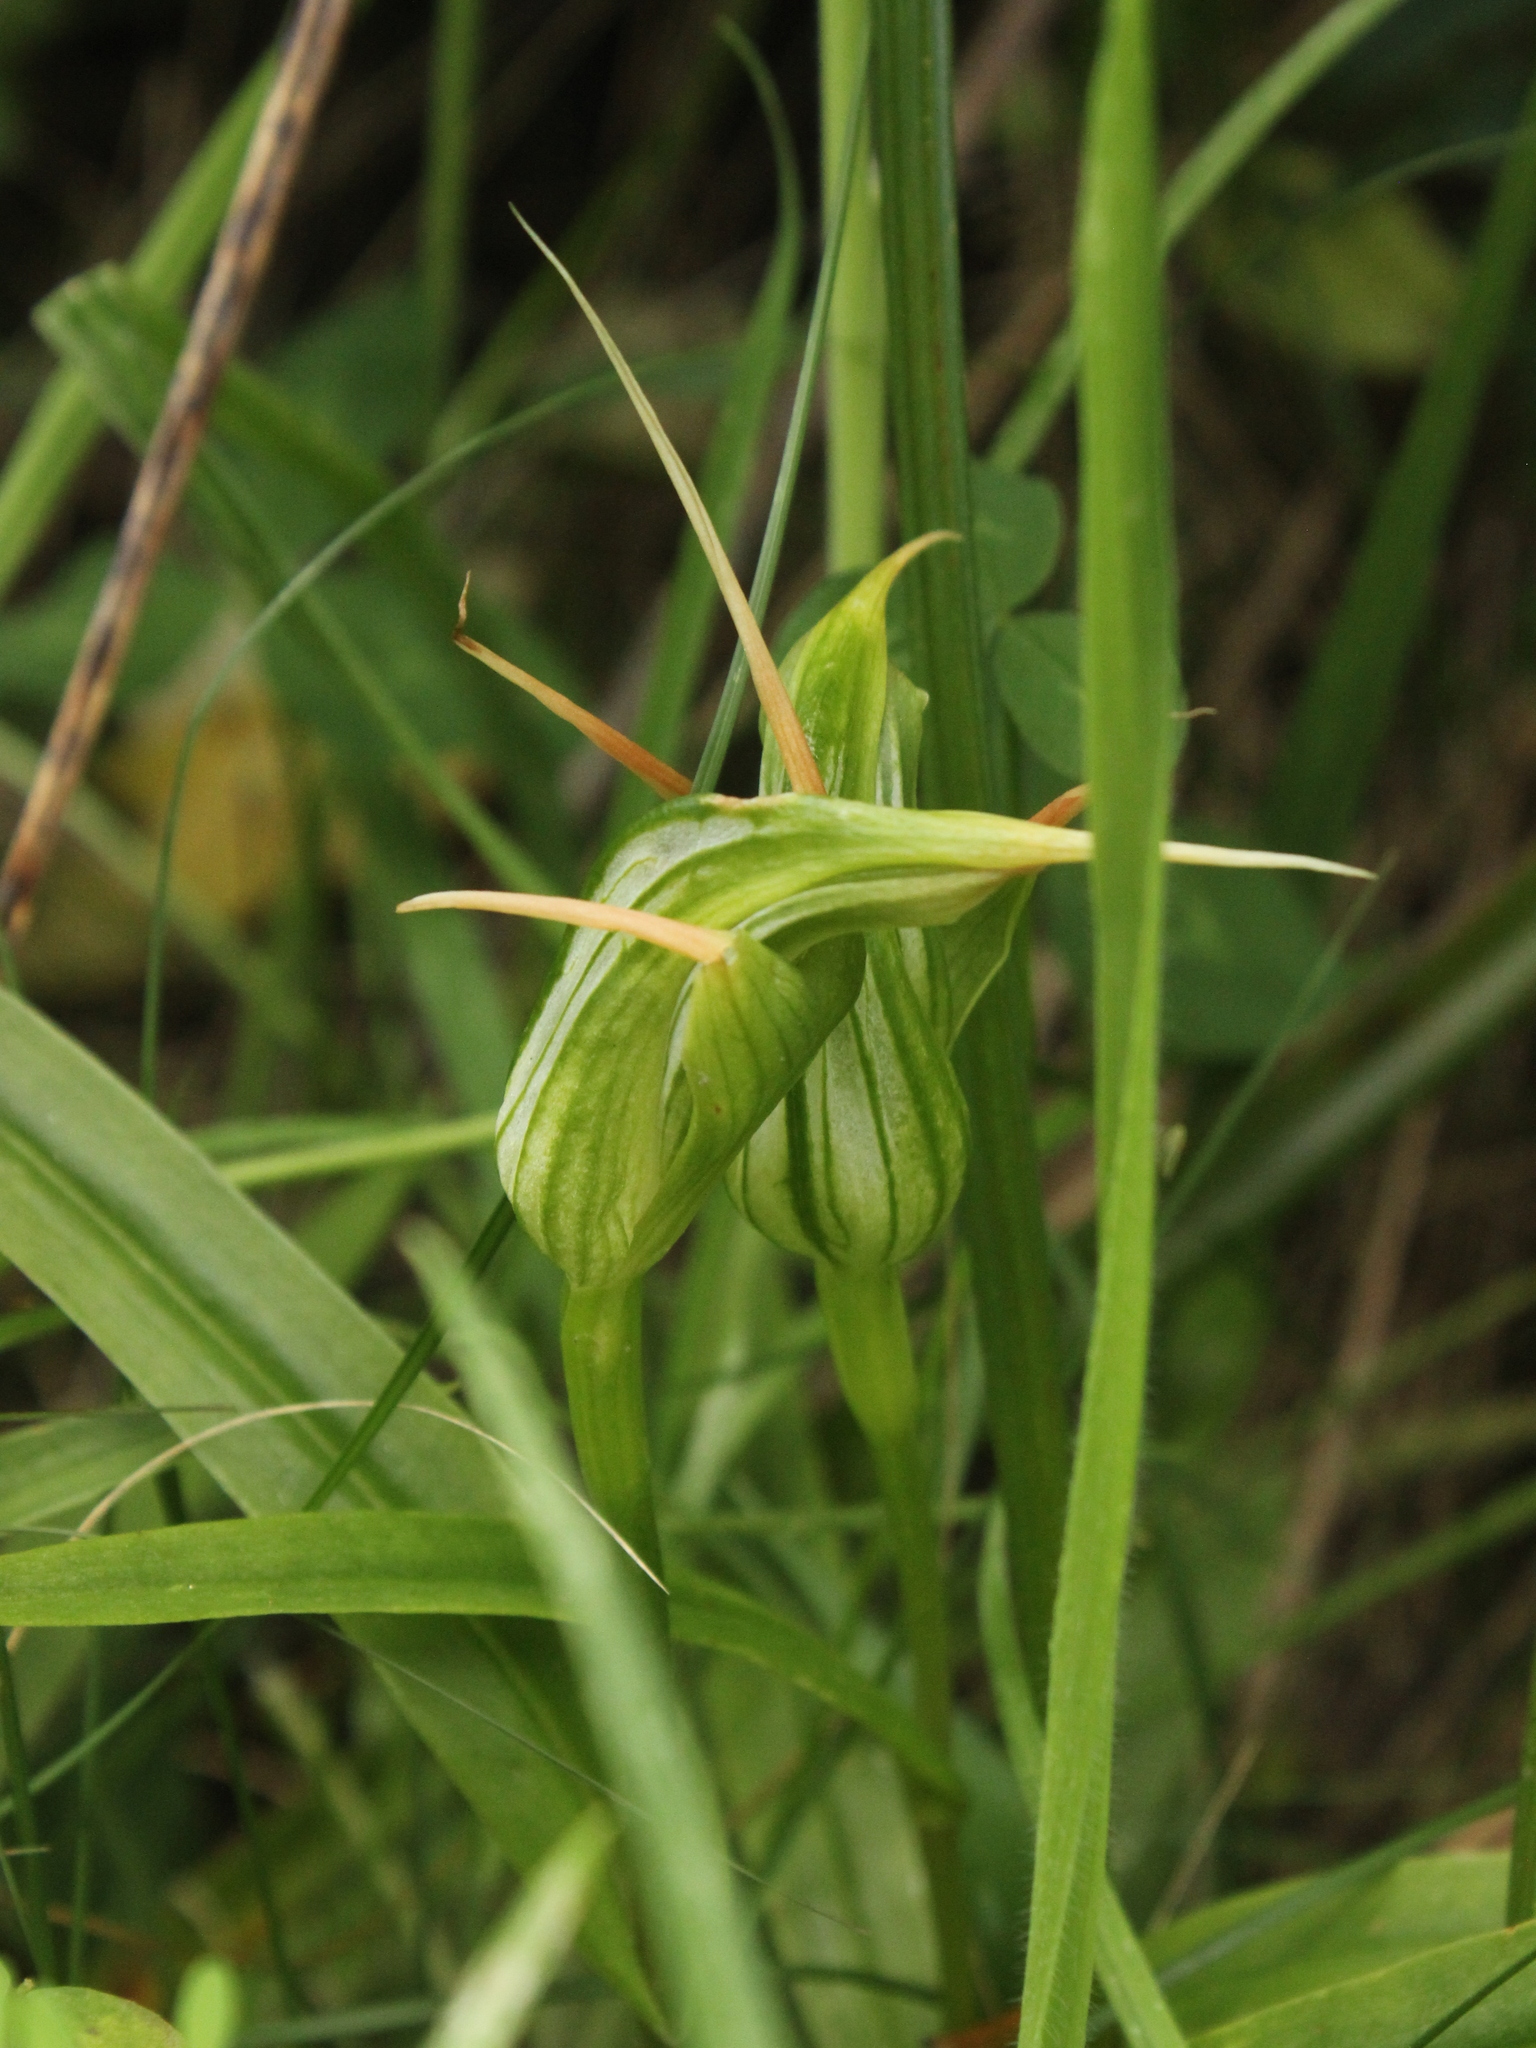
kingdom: Plantae
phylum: Tracheophyta
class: Liliopsida
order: Asparagales
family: Orchidaceae
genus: Pterostylis
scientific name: Pterostylis banksii
